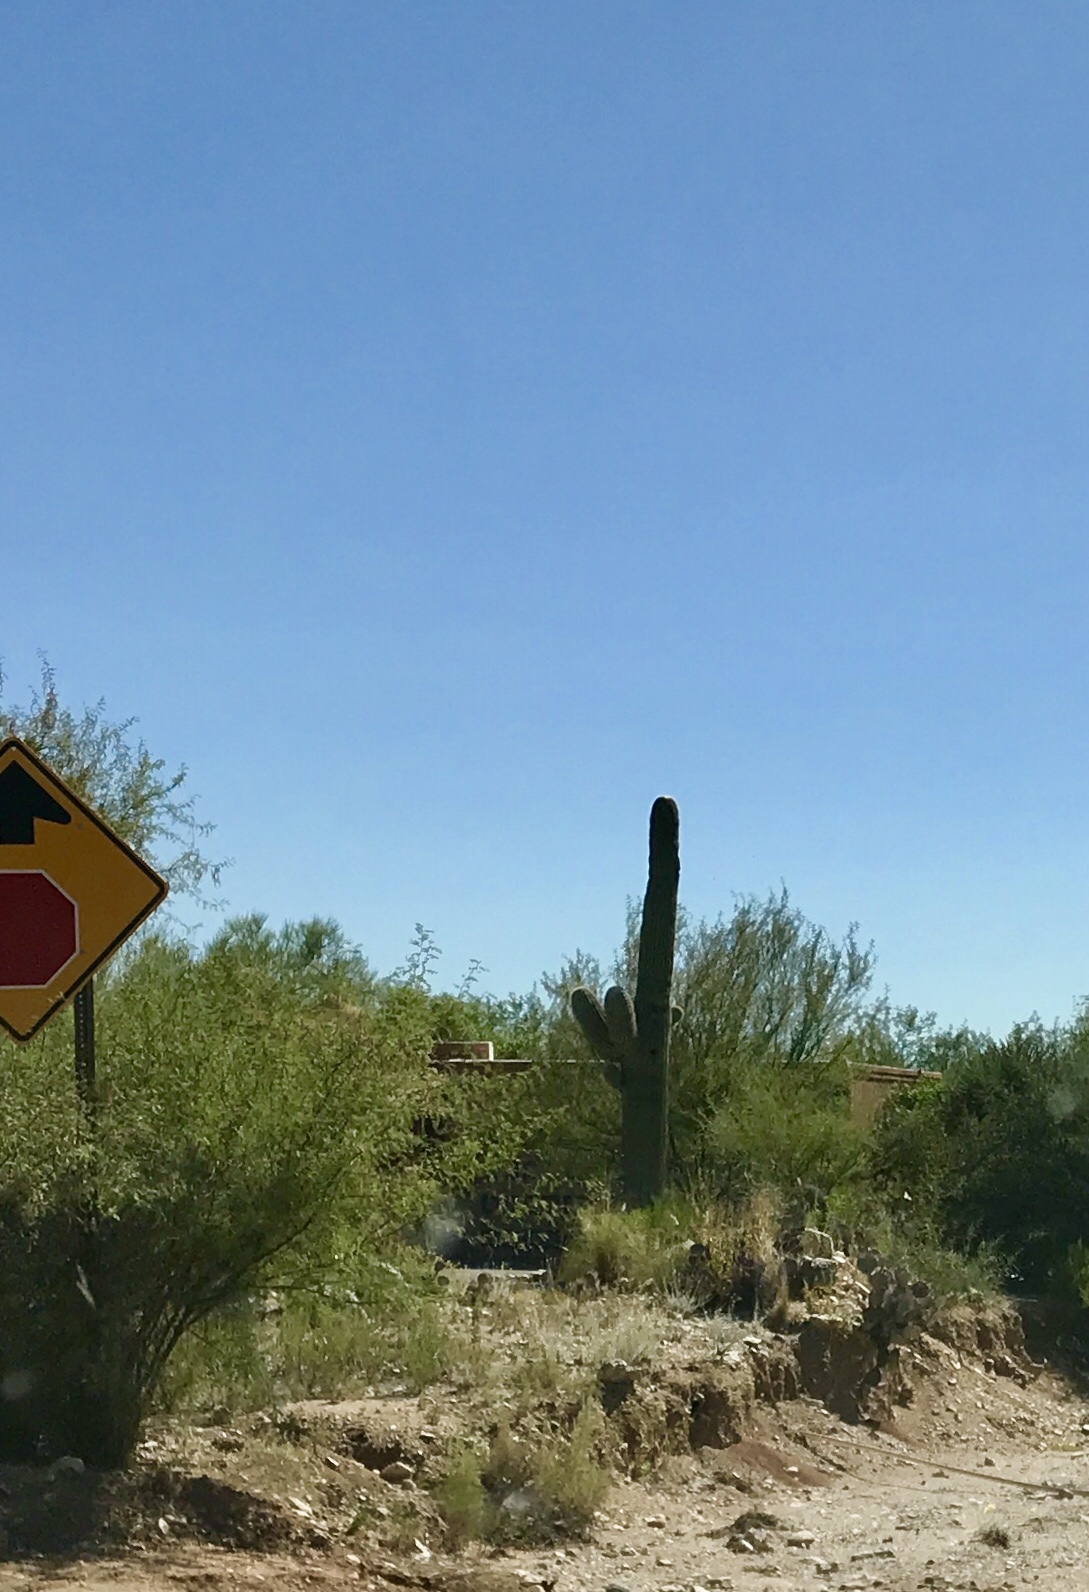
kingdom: Plantae
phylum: Tracheophyta
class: Magnoliopsida
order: Caryophyllales
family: Cactaceae
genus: Carnegiea
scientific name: Carnegiea gigantea
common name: Saguaro
